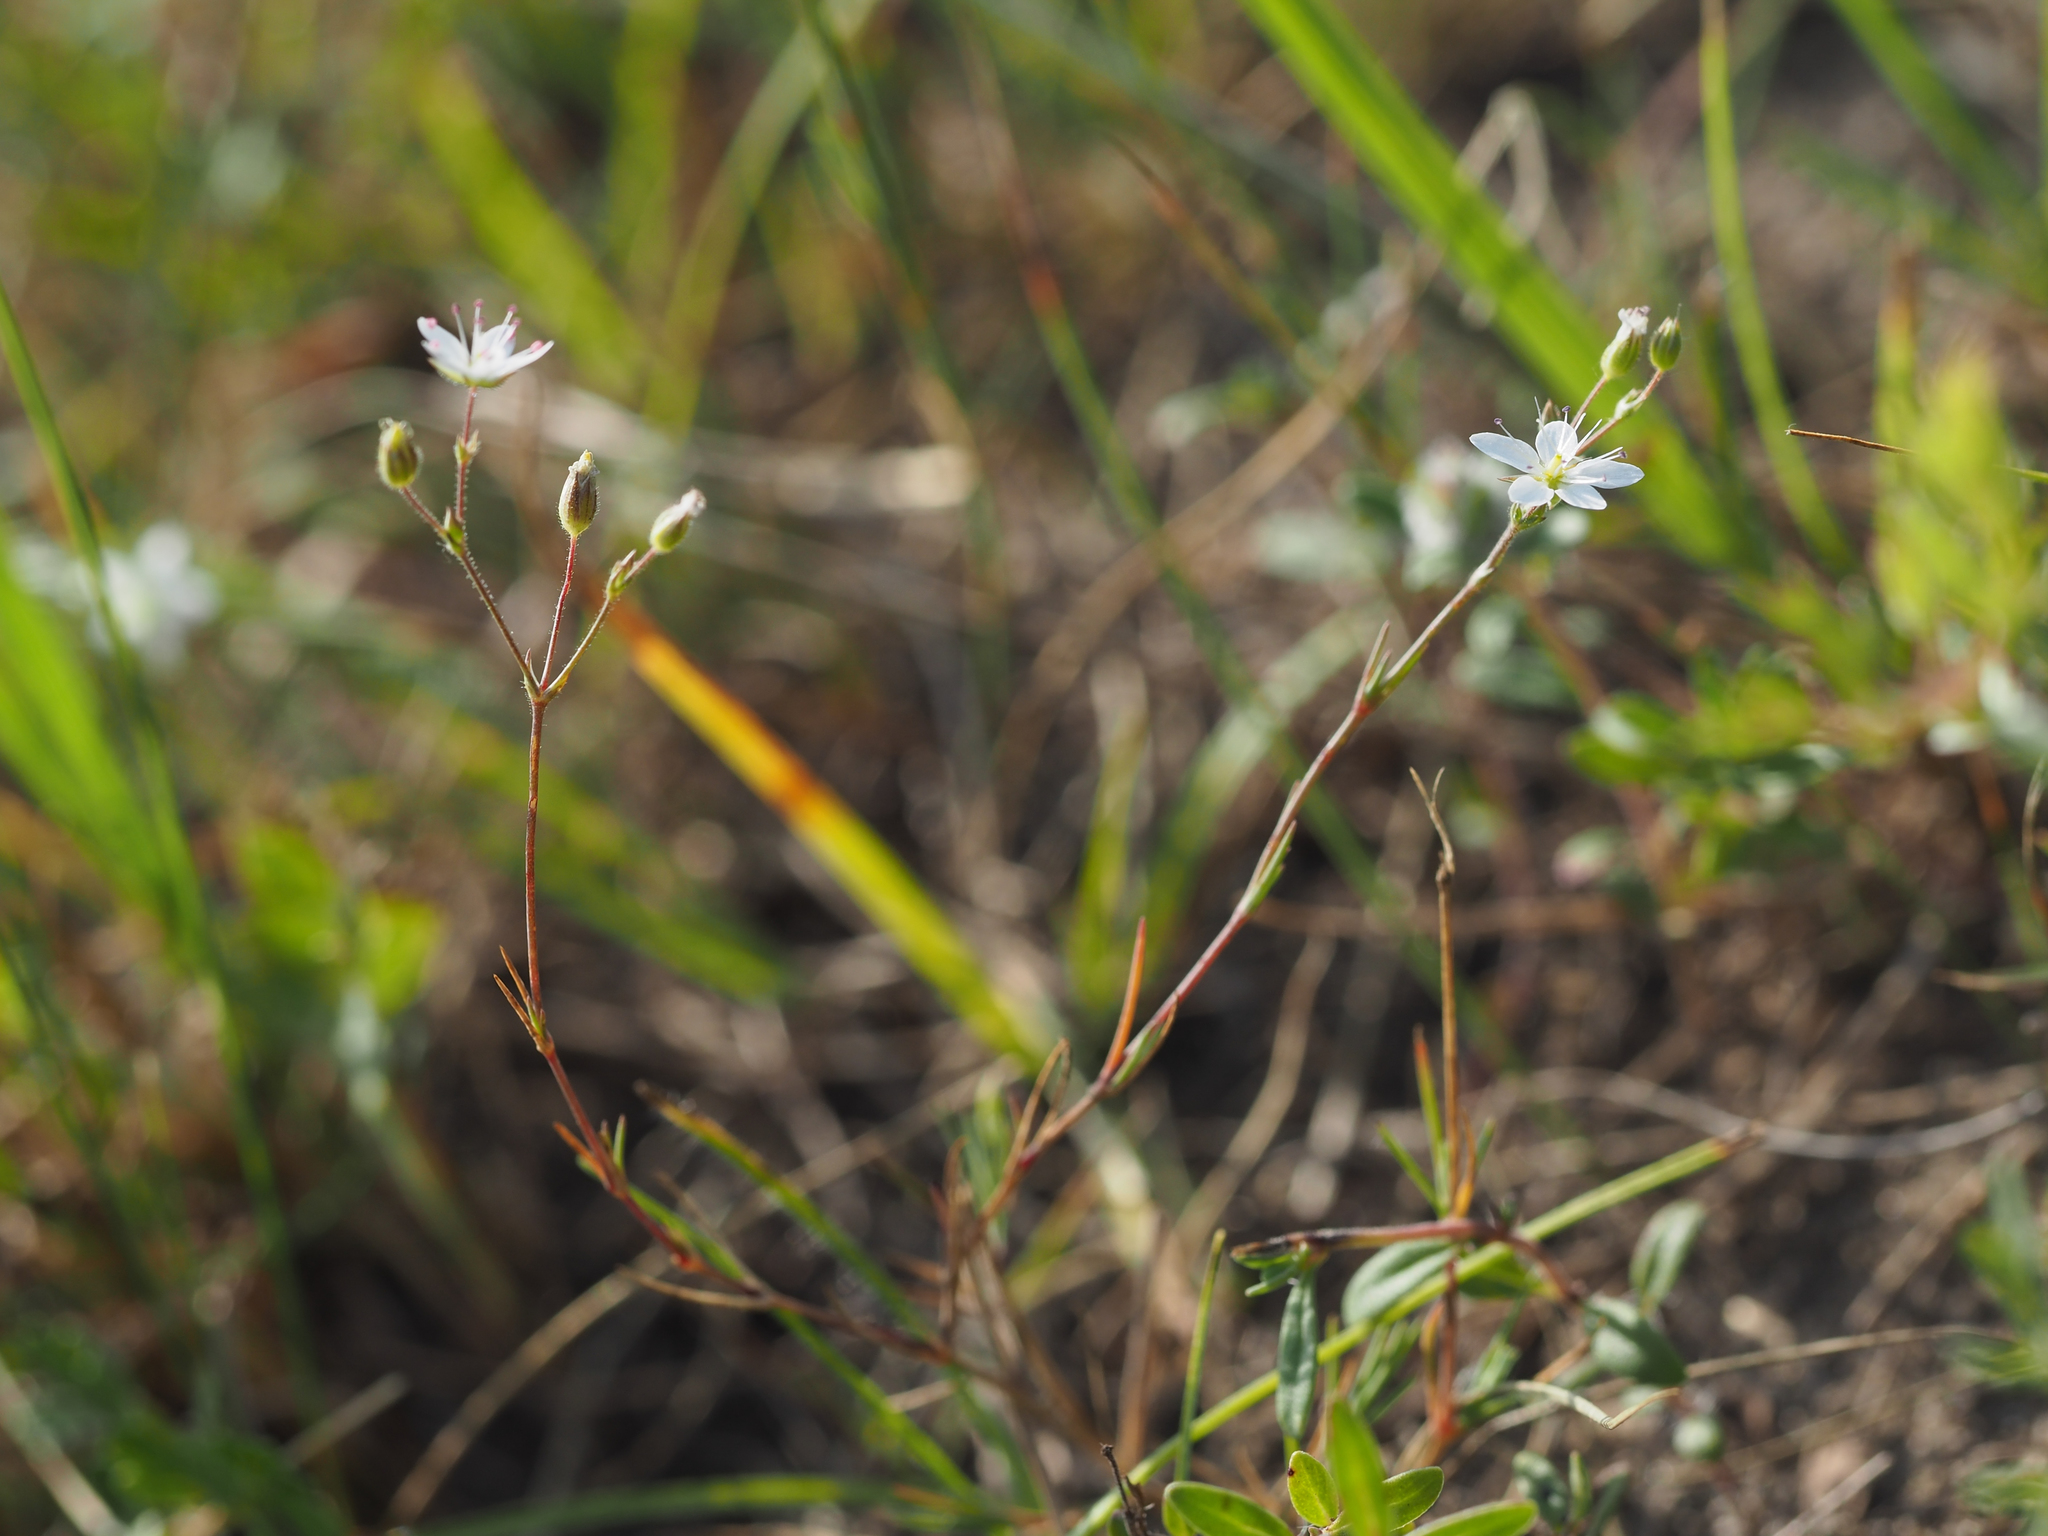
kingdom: Plantae
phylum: Tracheophyta
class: Magnoliopsida
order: Caryophyllales
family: Caryophyllaceae
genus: Sabulina
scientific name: Sabulina glaucina
